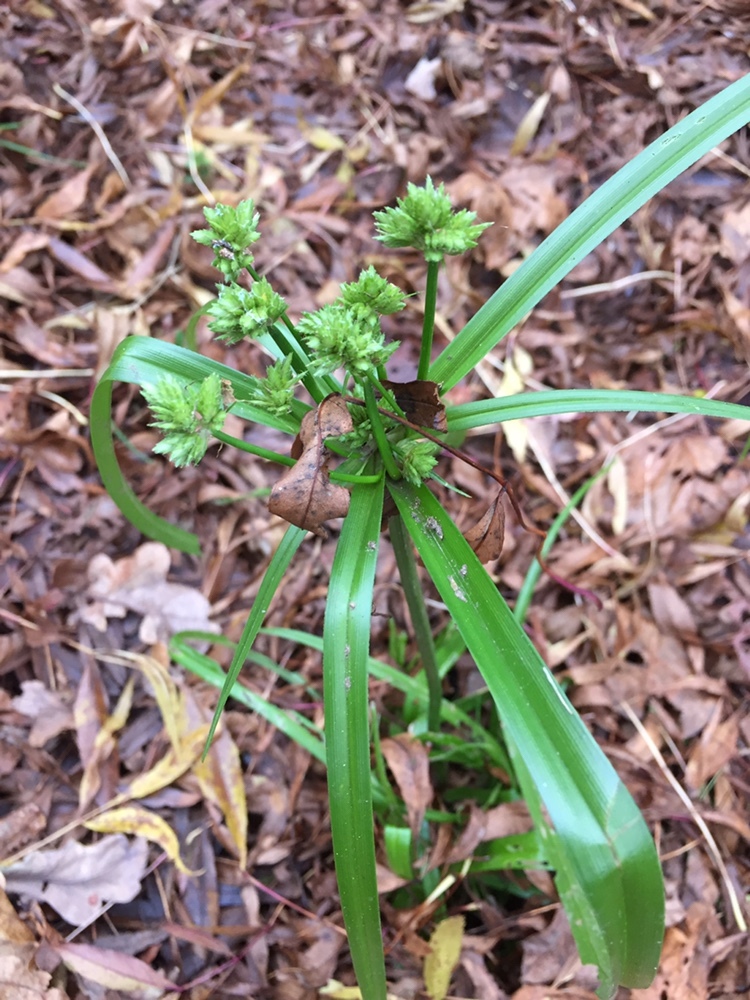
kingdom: Plantae
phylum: Tracheophyta
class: Liliopsida
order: Poales
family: Cyperaceae
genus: Cyperus
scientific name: Cyperus eragrostis
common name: Tall flatsedge
